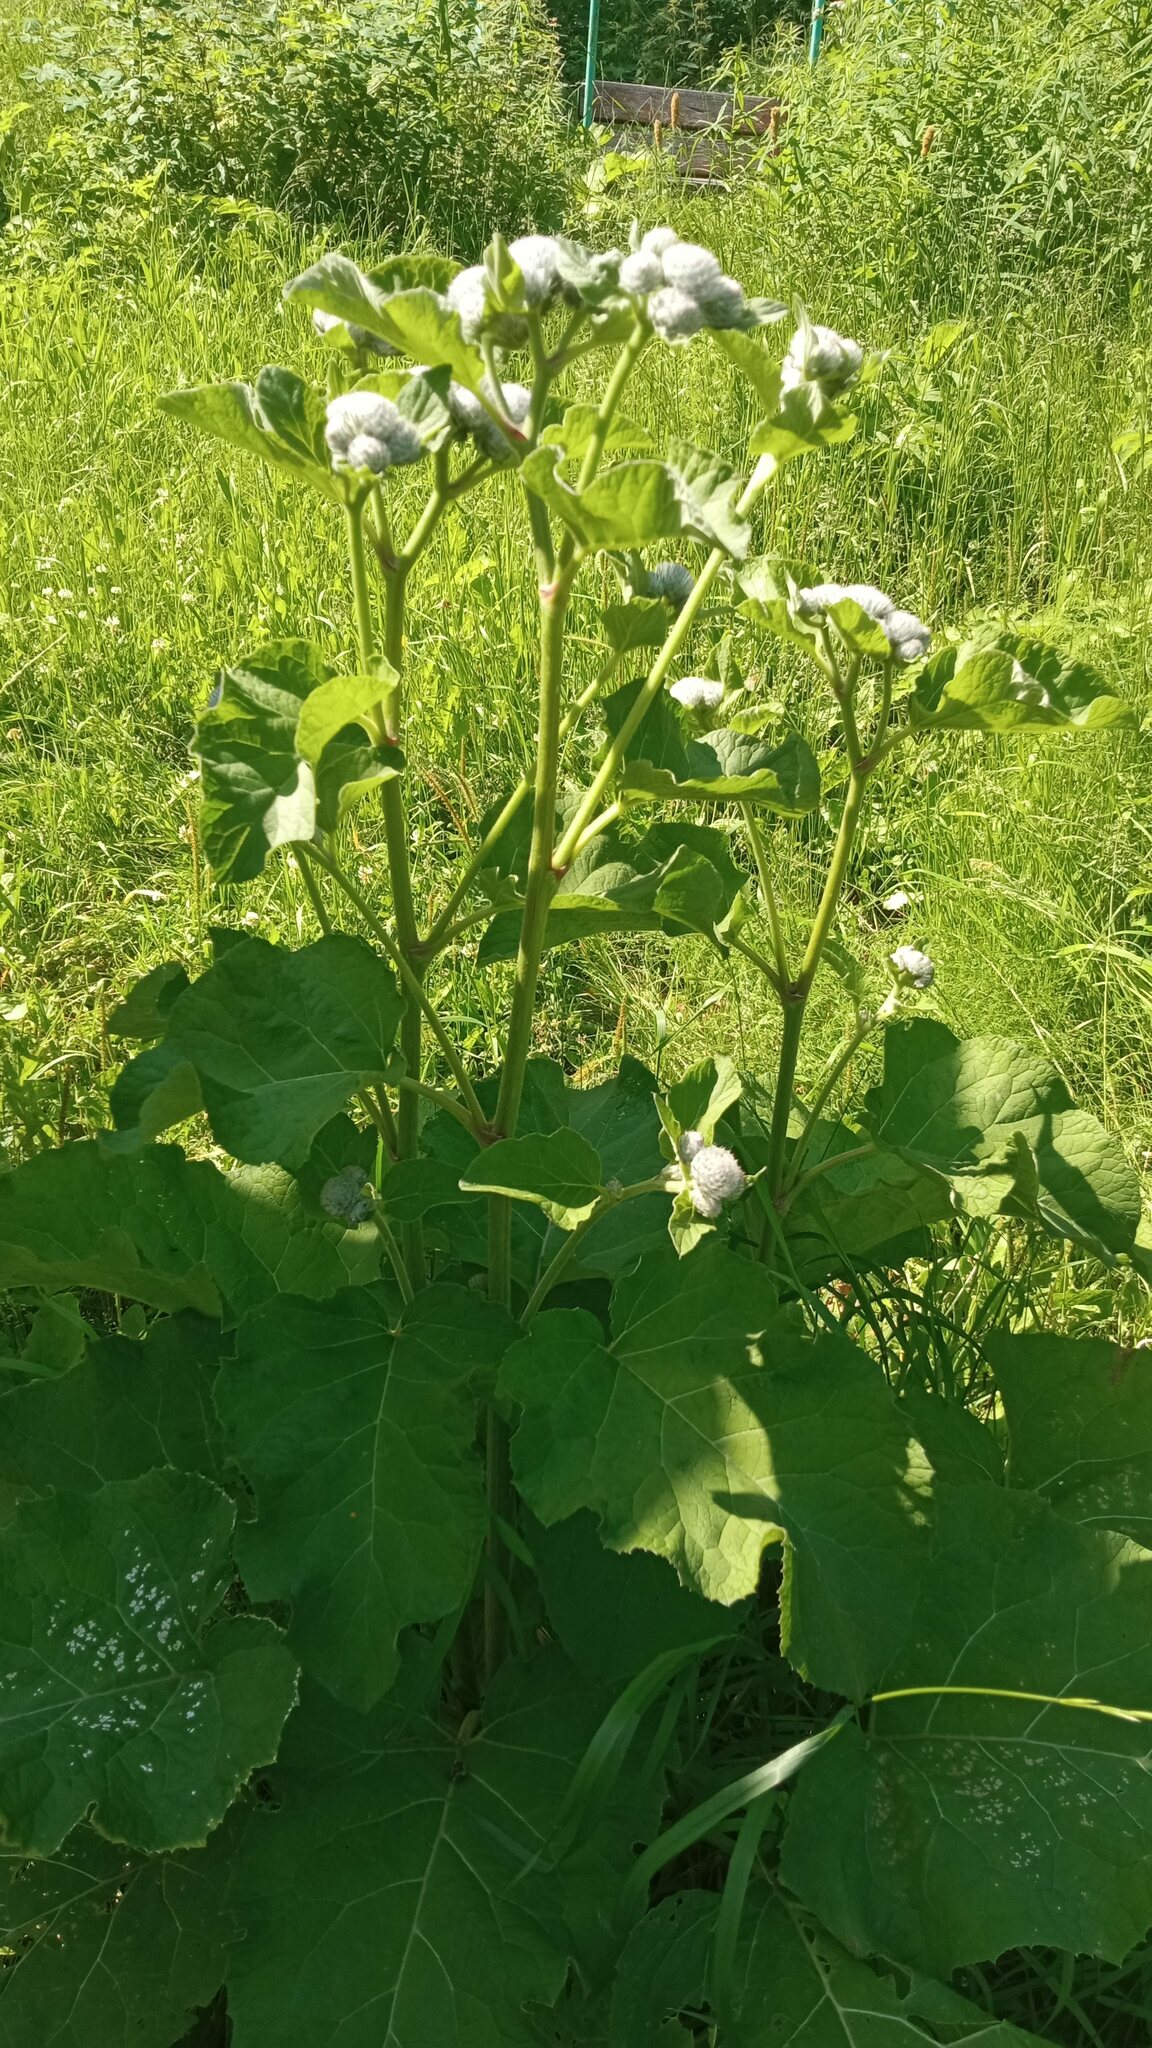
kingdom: Plantae
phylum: Tracheophyta
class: Magnoliopsida
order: Asterales
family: Asteraceae
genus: Arctium
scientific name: Arctium tomentosum
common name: Woolly burdock
